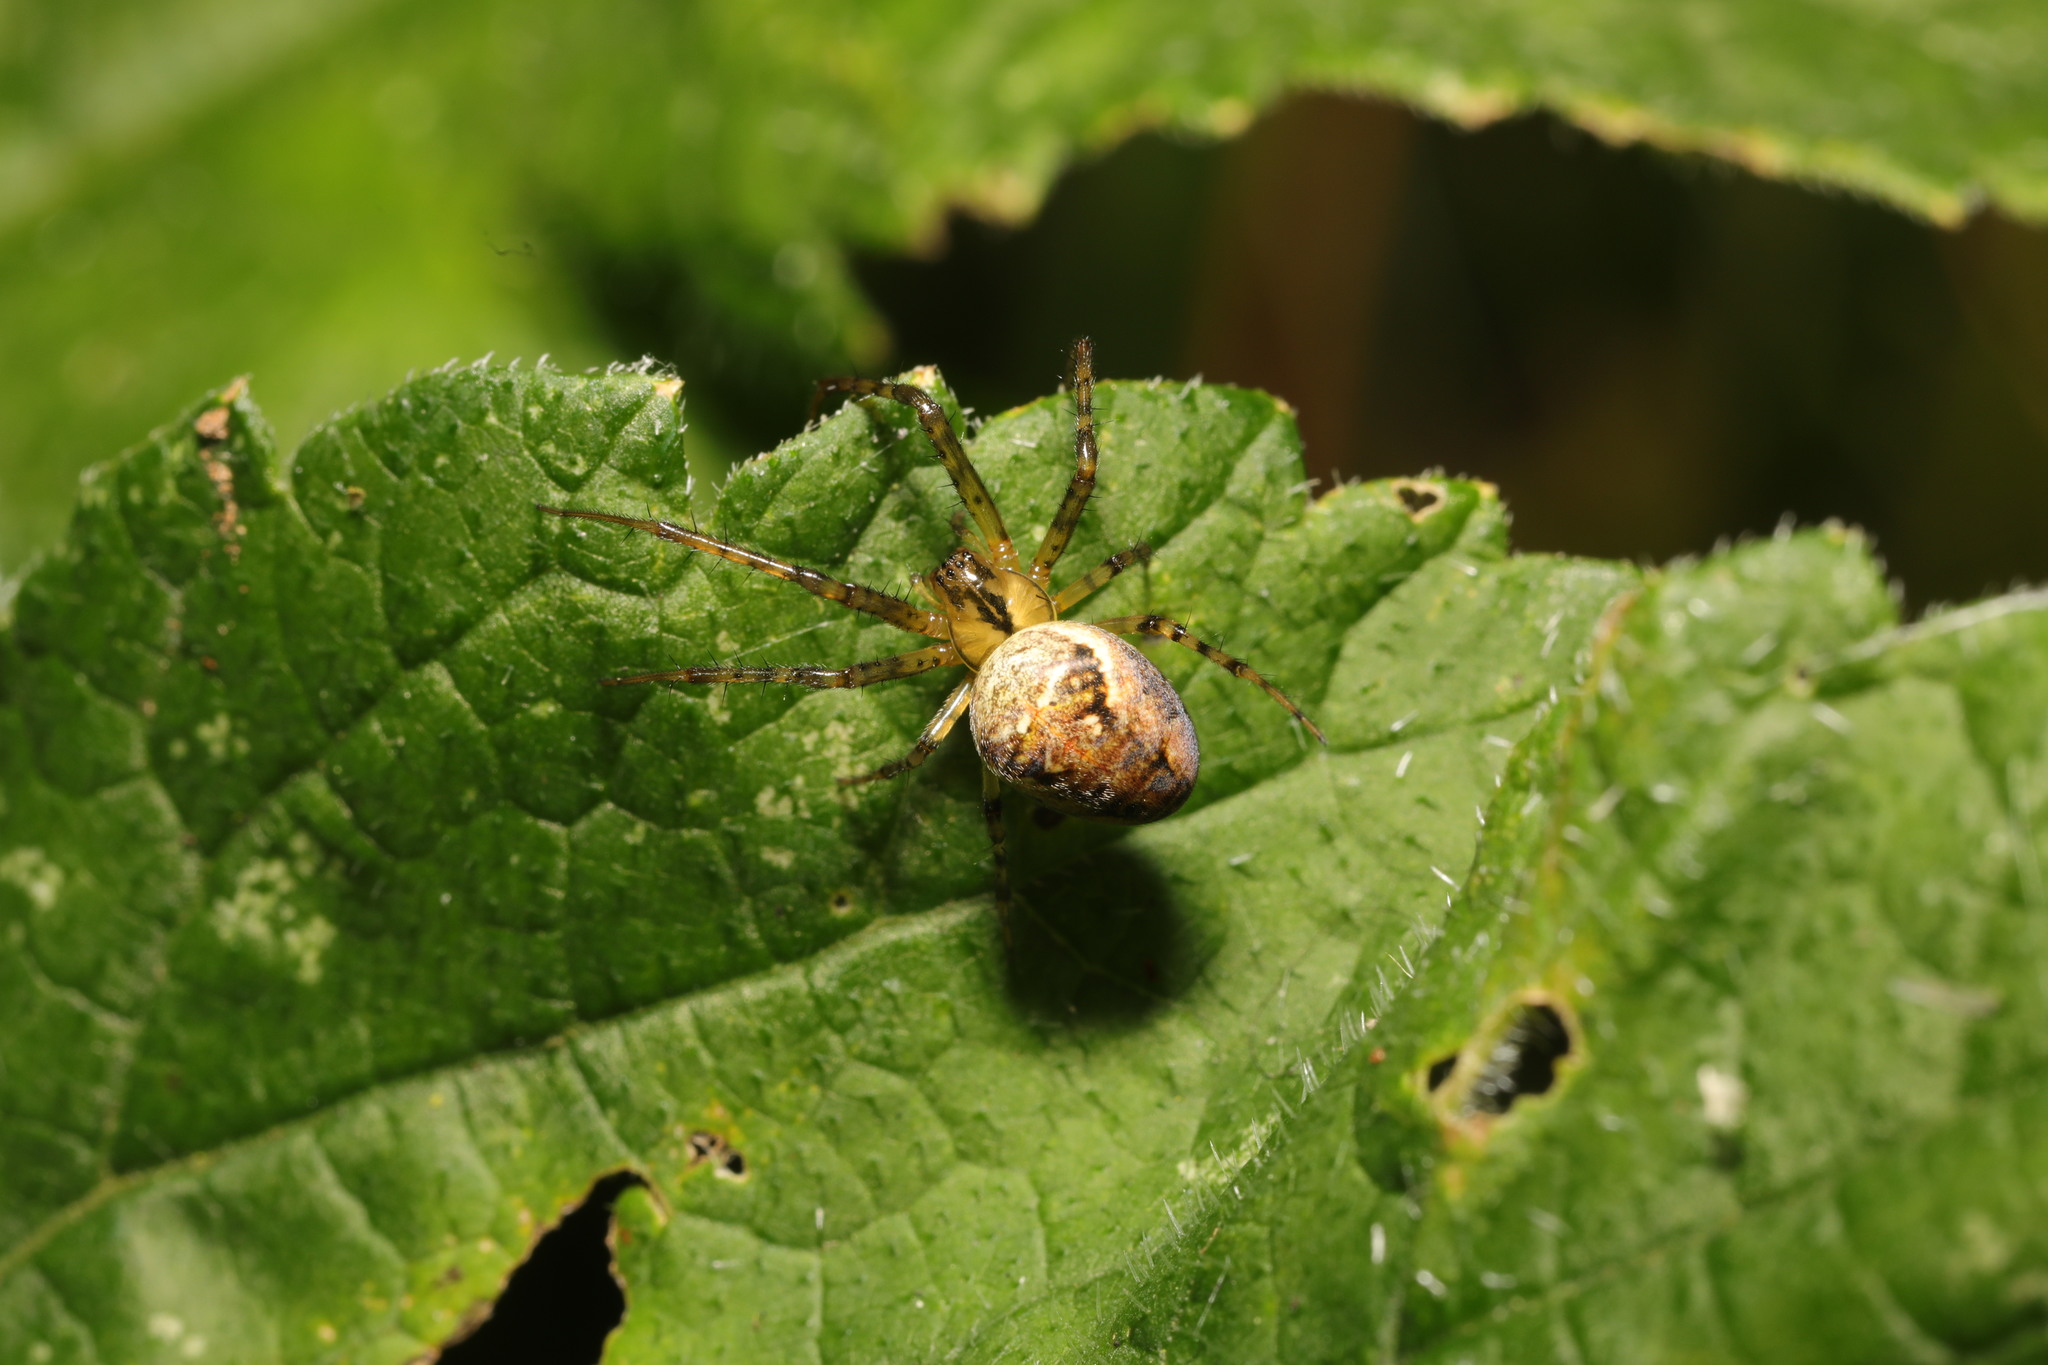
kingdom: Animalia
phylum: Arthropoda
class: Arachnida
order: Araneae
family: Tetragnathidae
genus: Metellina
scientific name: Metellina segmentata
